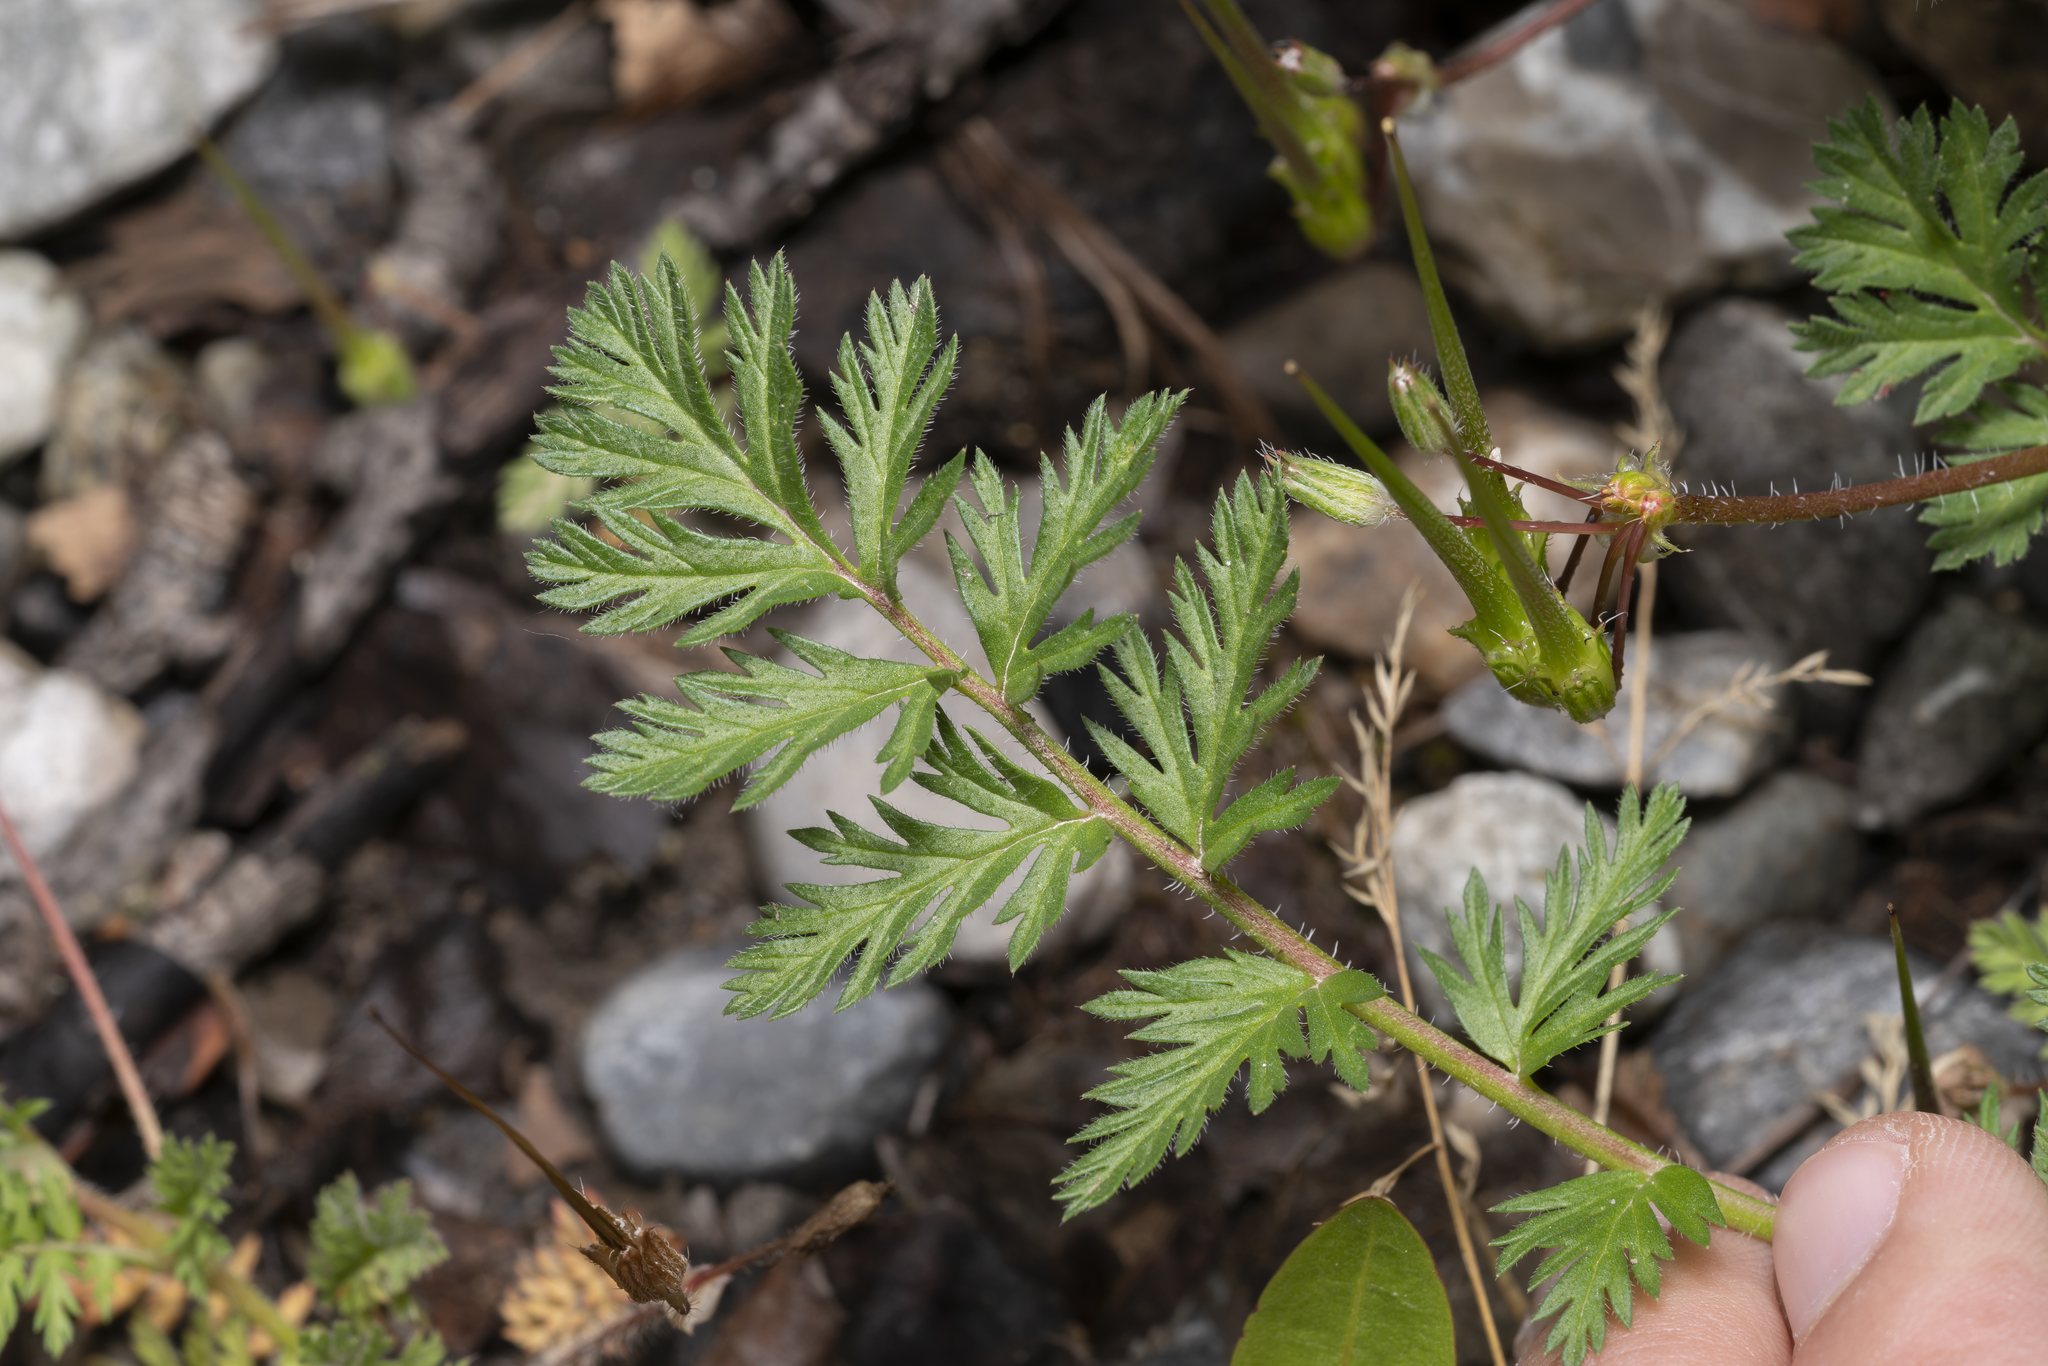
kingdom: Plantae
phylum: Tracheophyta
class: Magnoliopsida
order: Geraniales
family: Geraniaceae
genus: Erodium
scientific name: Erodium cicutarium
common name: Common stork's-bill
